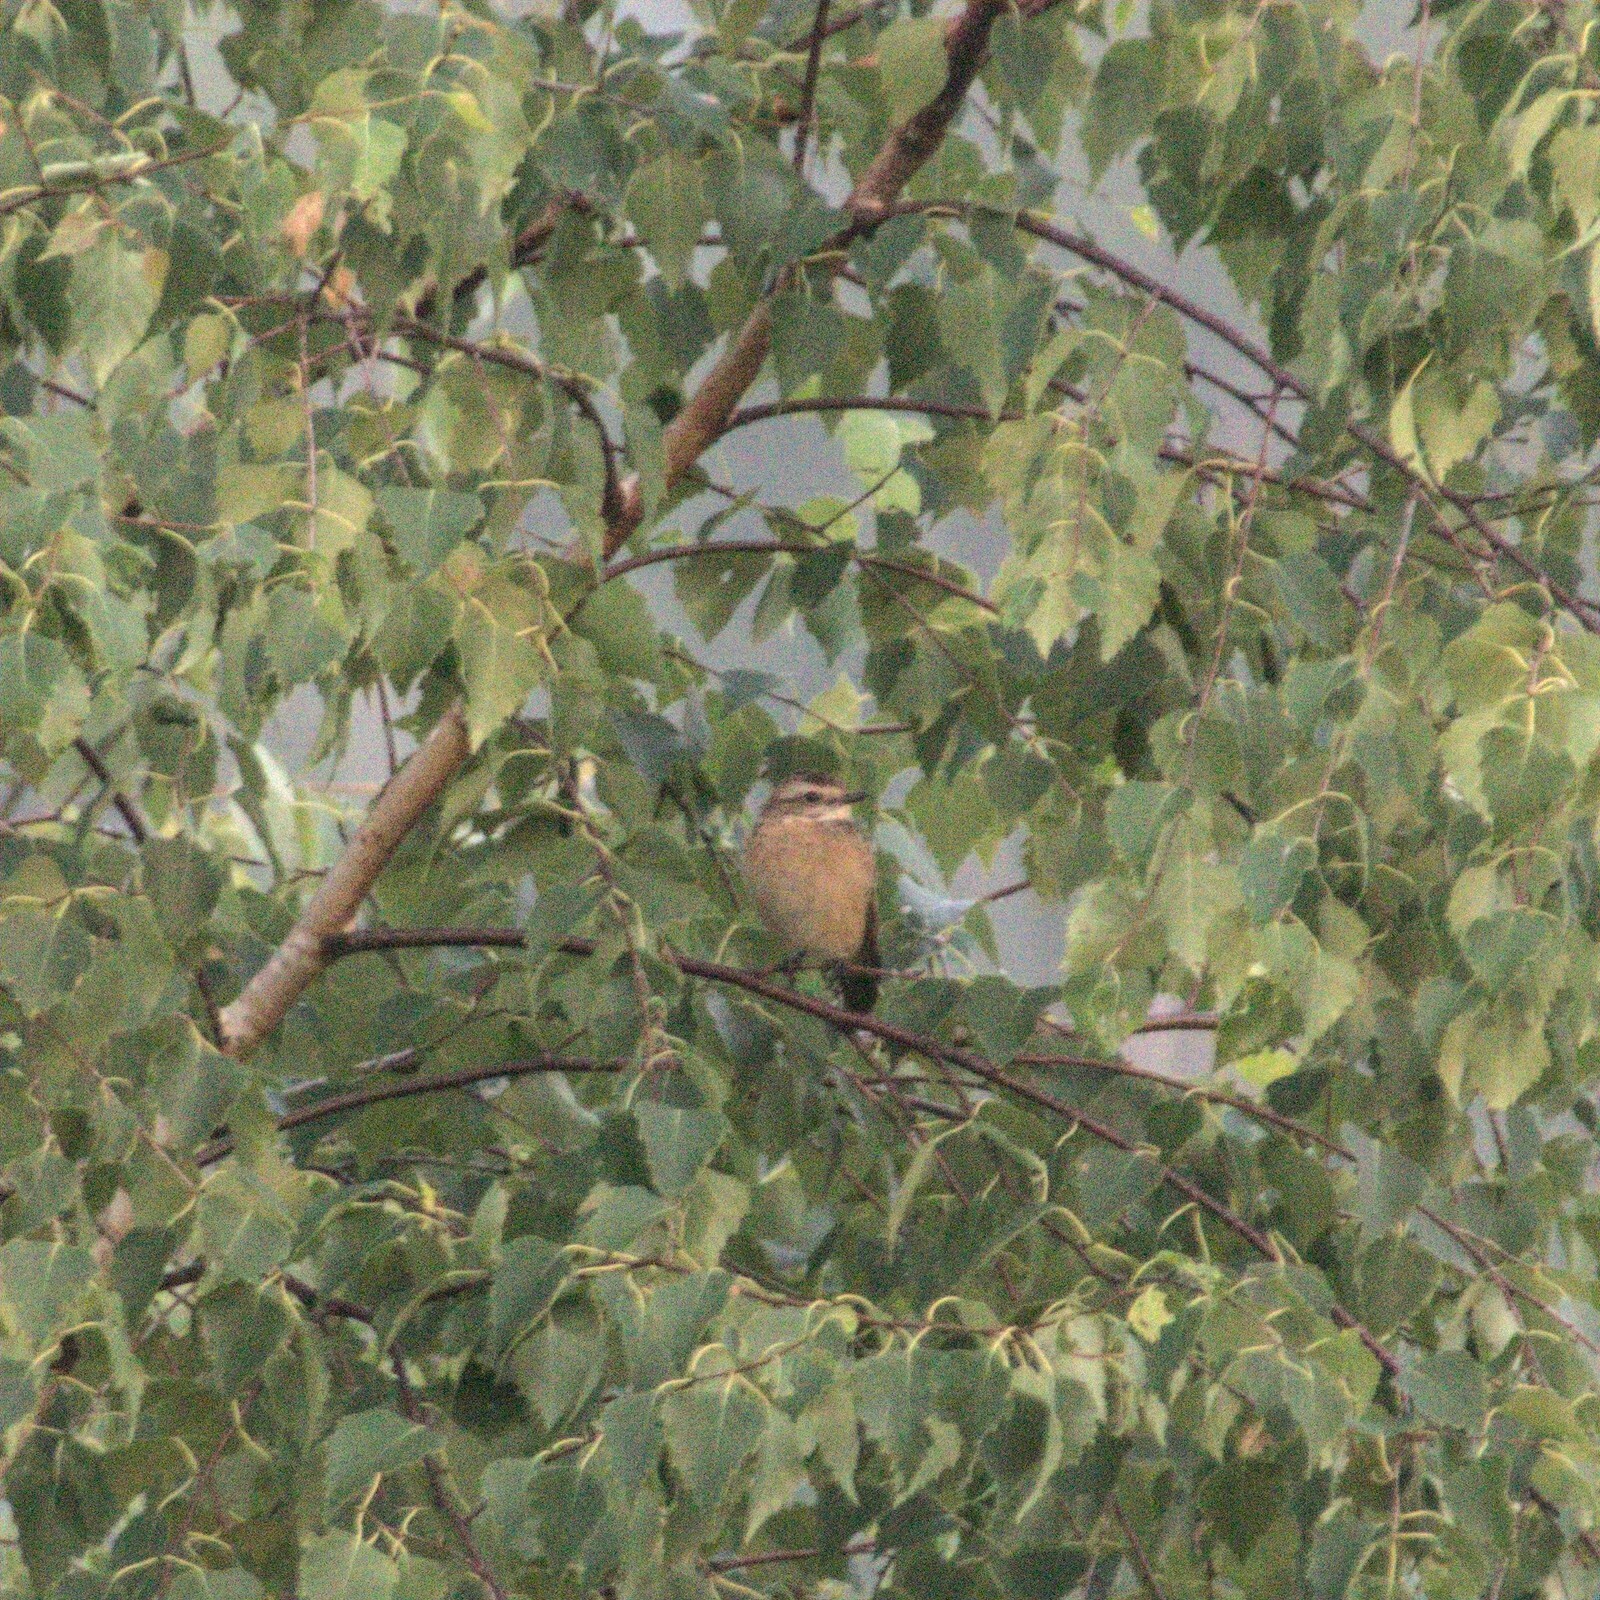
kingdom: Animalia
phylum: Chordata
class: Aves
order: Passeriformes
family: Muscicapidae
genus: Saxicola
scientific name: Saxicola rubetra
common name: Whinchat
